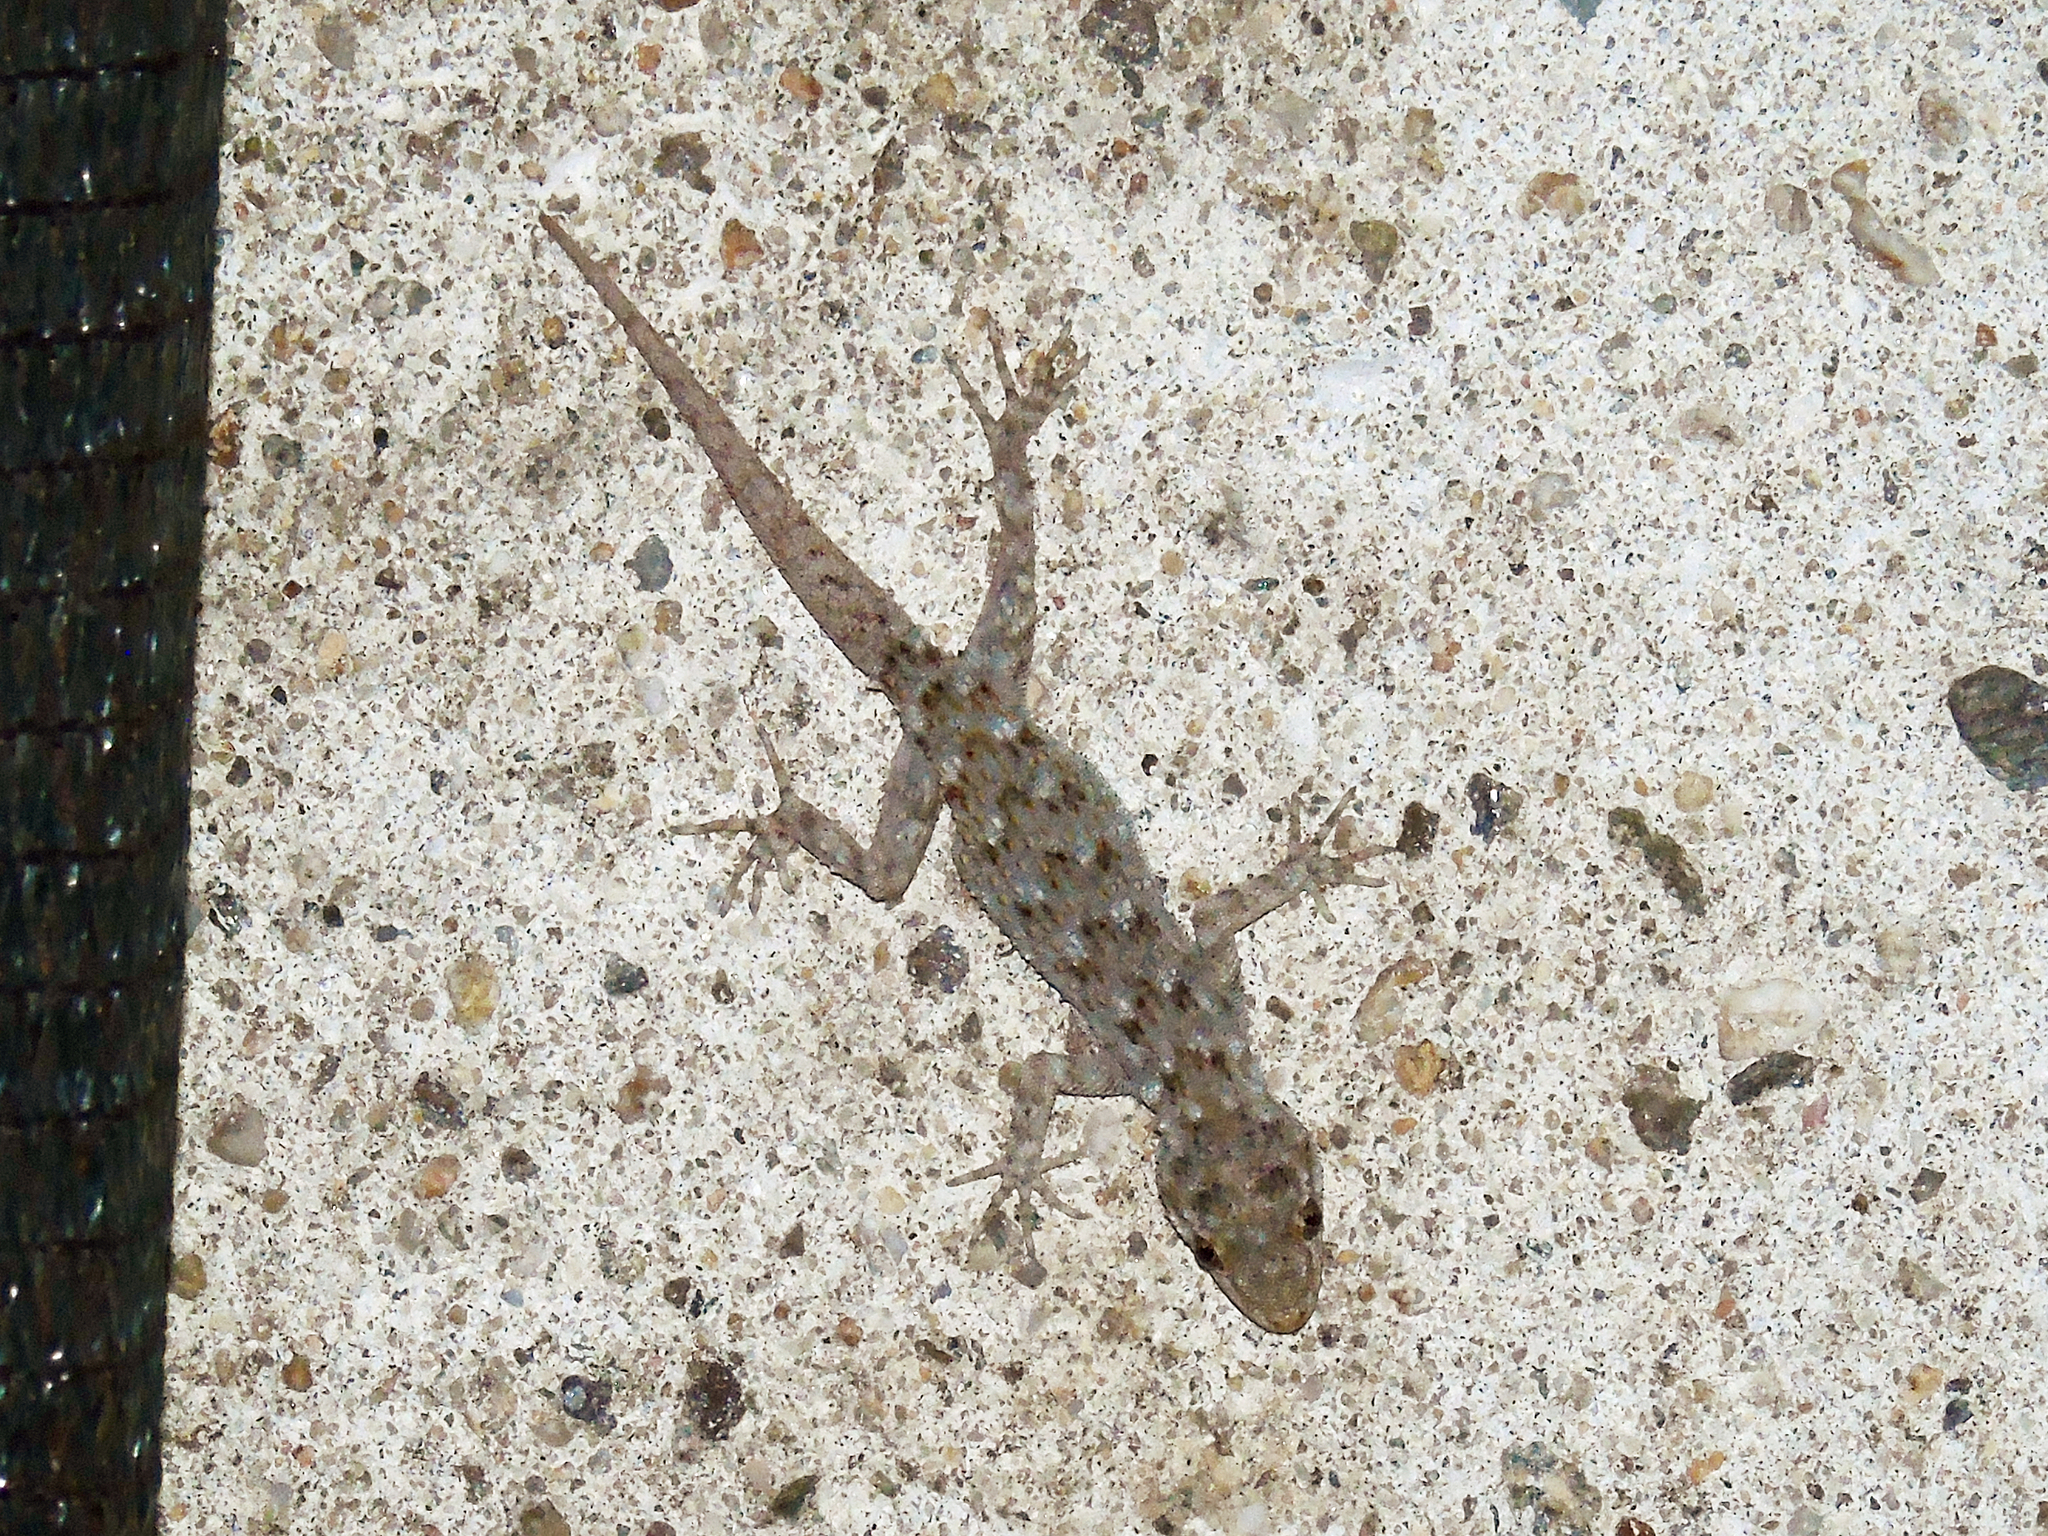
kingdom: Animalia
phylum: Chordata
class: Squamata
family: Gekkonidae
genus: Mediodactylus
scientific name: Mediodactylus kotschyi
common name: Kotschy's gecko
